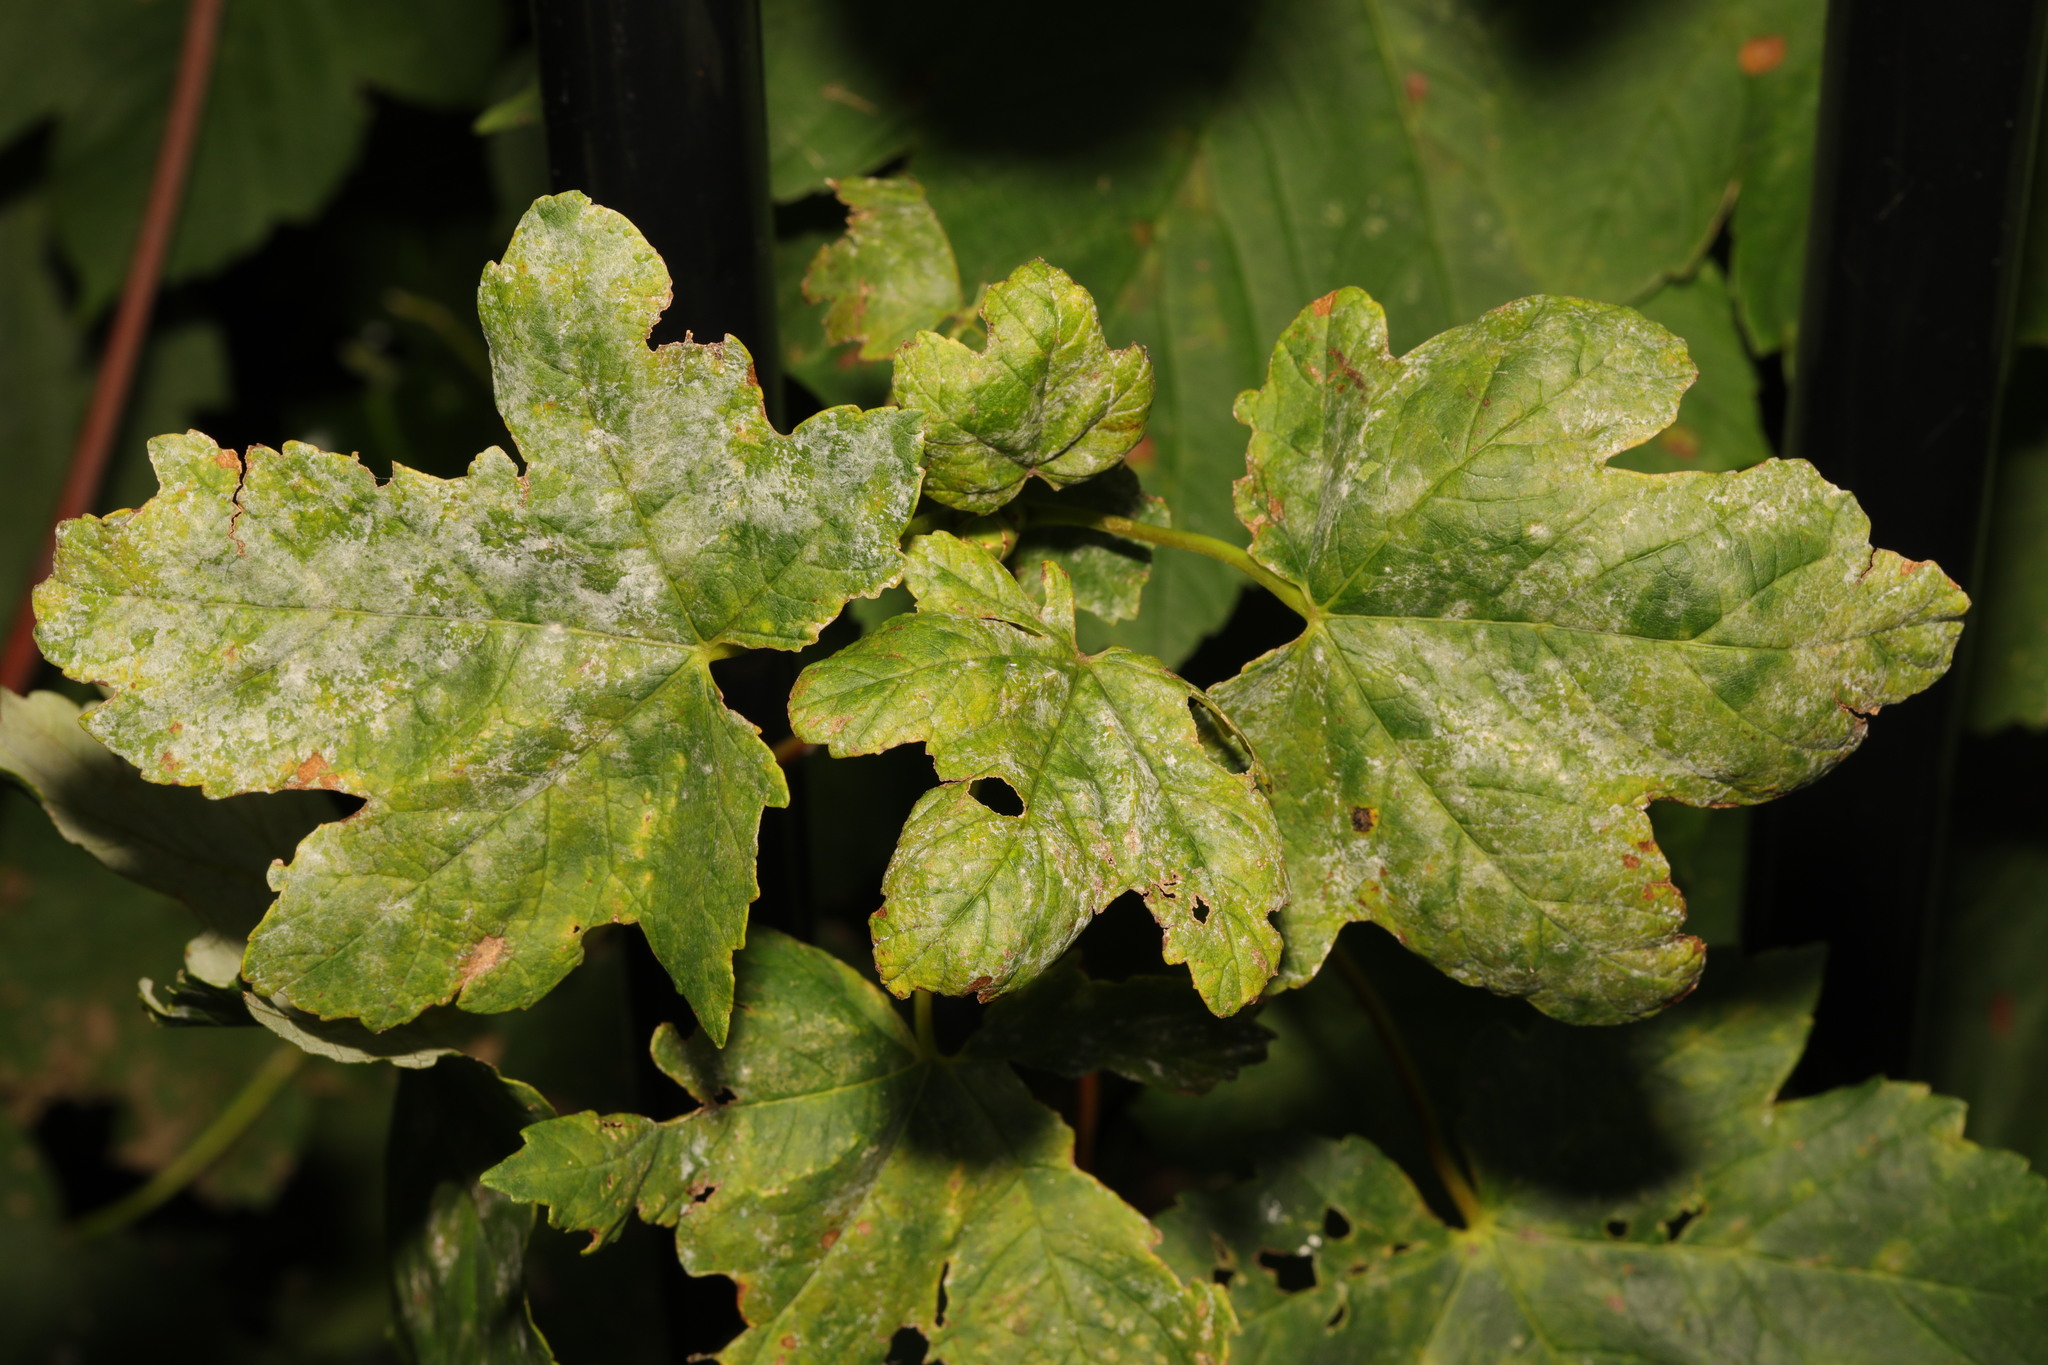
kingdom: Plantae
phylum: Tracheophyta
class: Magnoliopsida
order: Sapindales
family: Sapindaceae
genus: Acer
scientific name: Acer pseudoplatanus
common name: Sycamore
